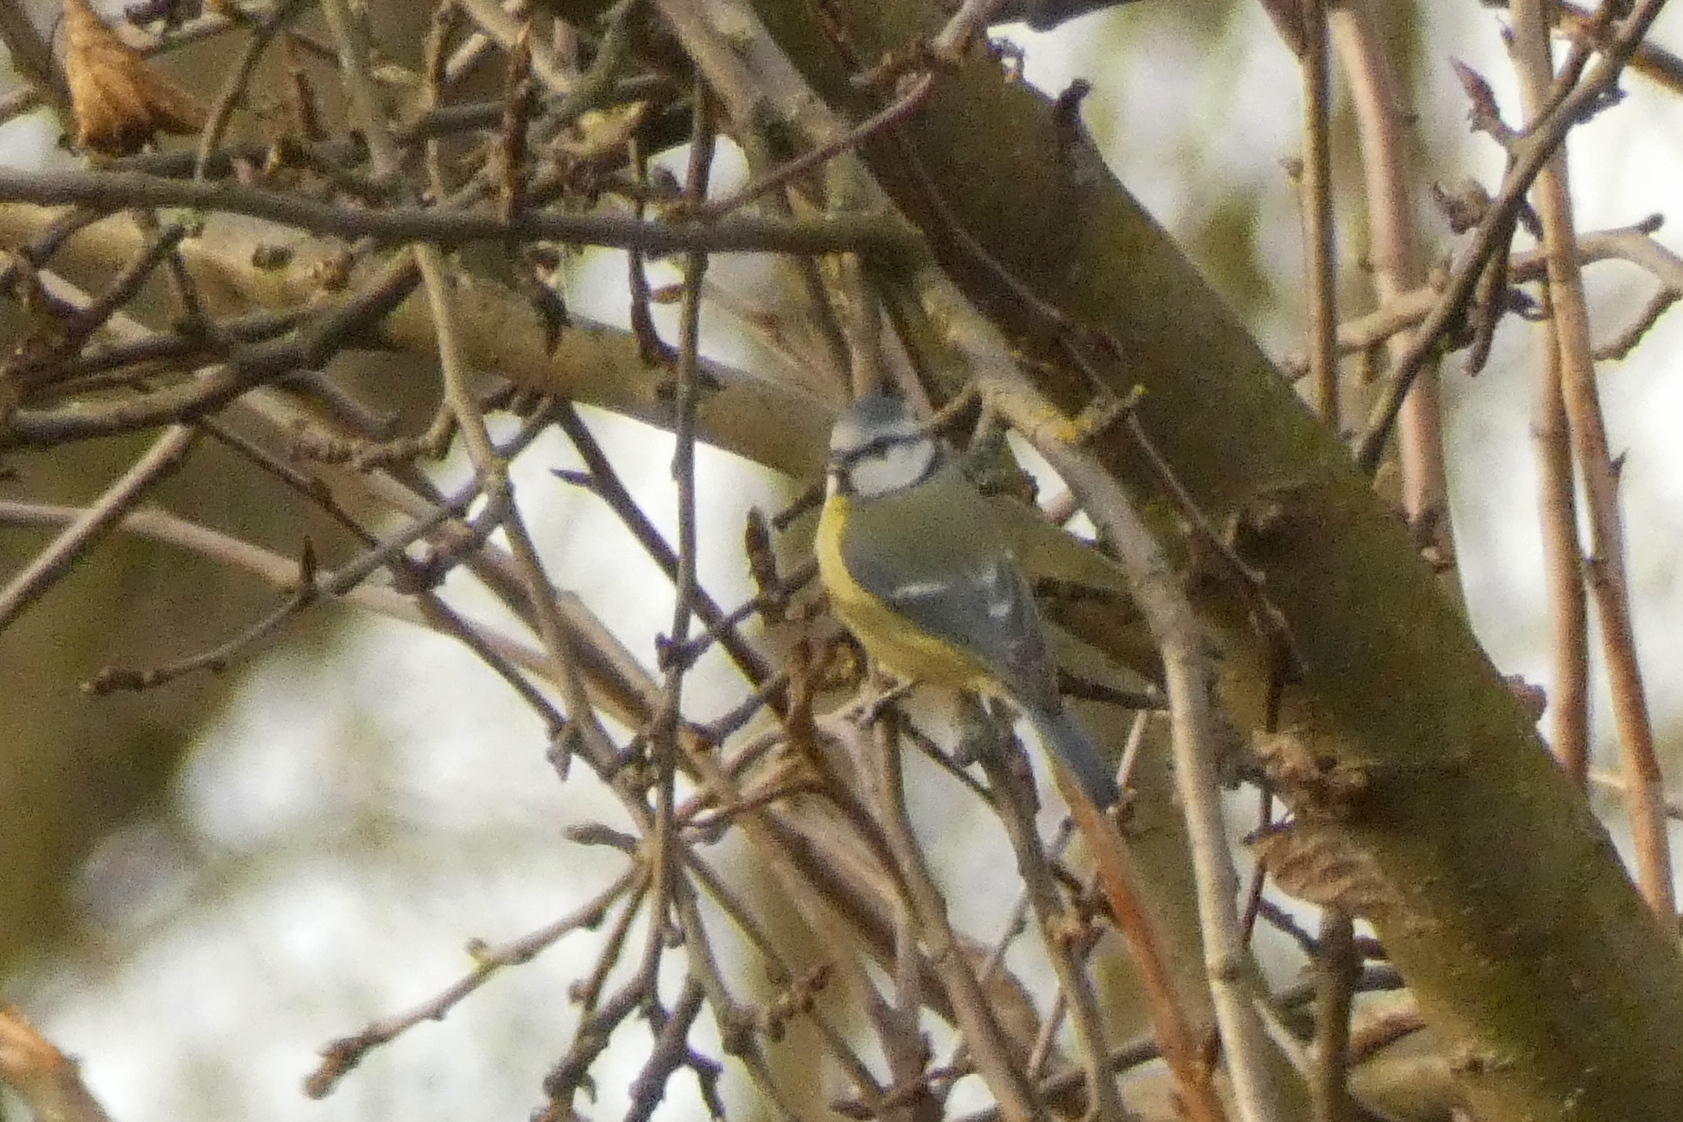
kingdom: Animalia
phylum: Chordata
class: Aves
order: Passeriformes
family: Paridae
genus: Cyanistes
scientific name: Cyanistes caeruleus
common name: Eurasian blue tit
